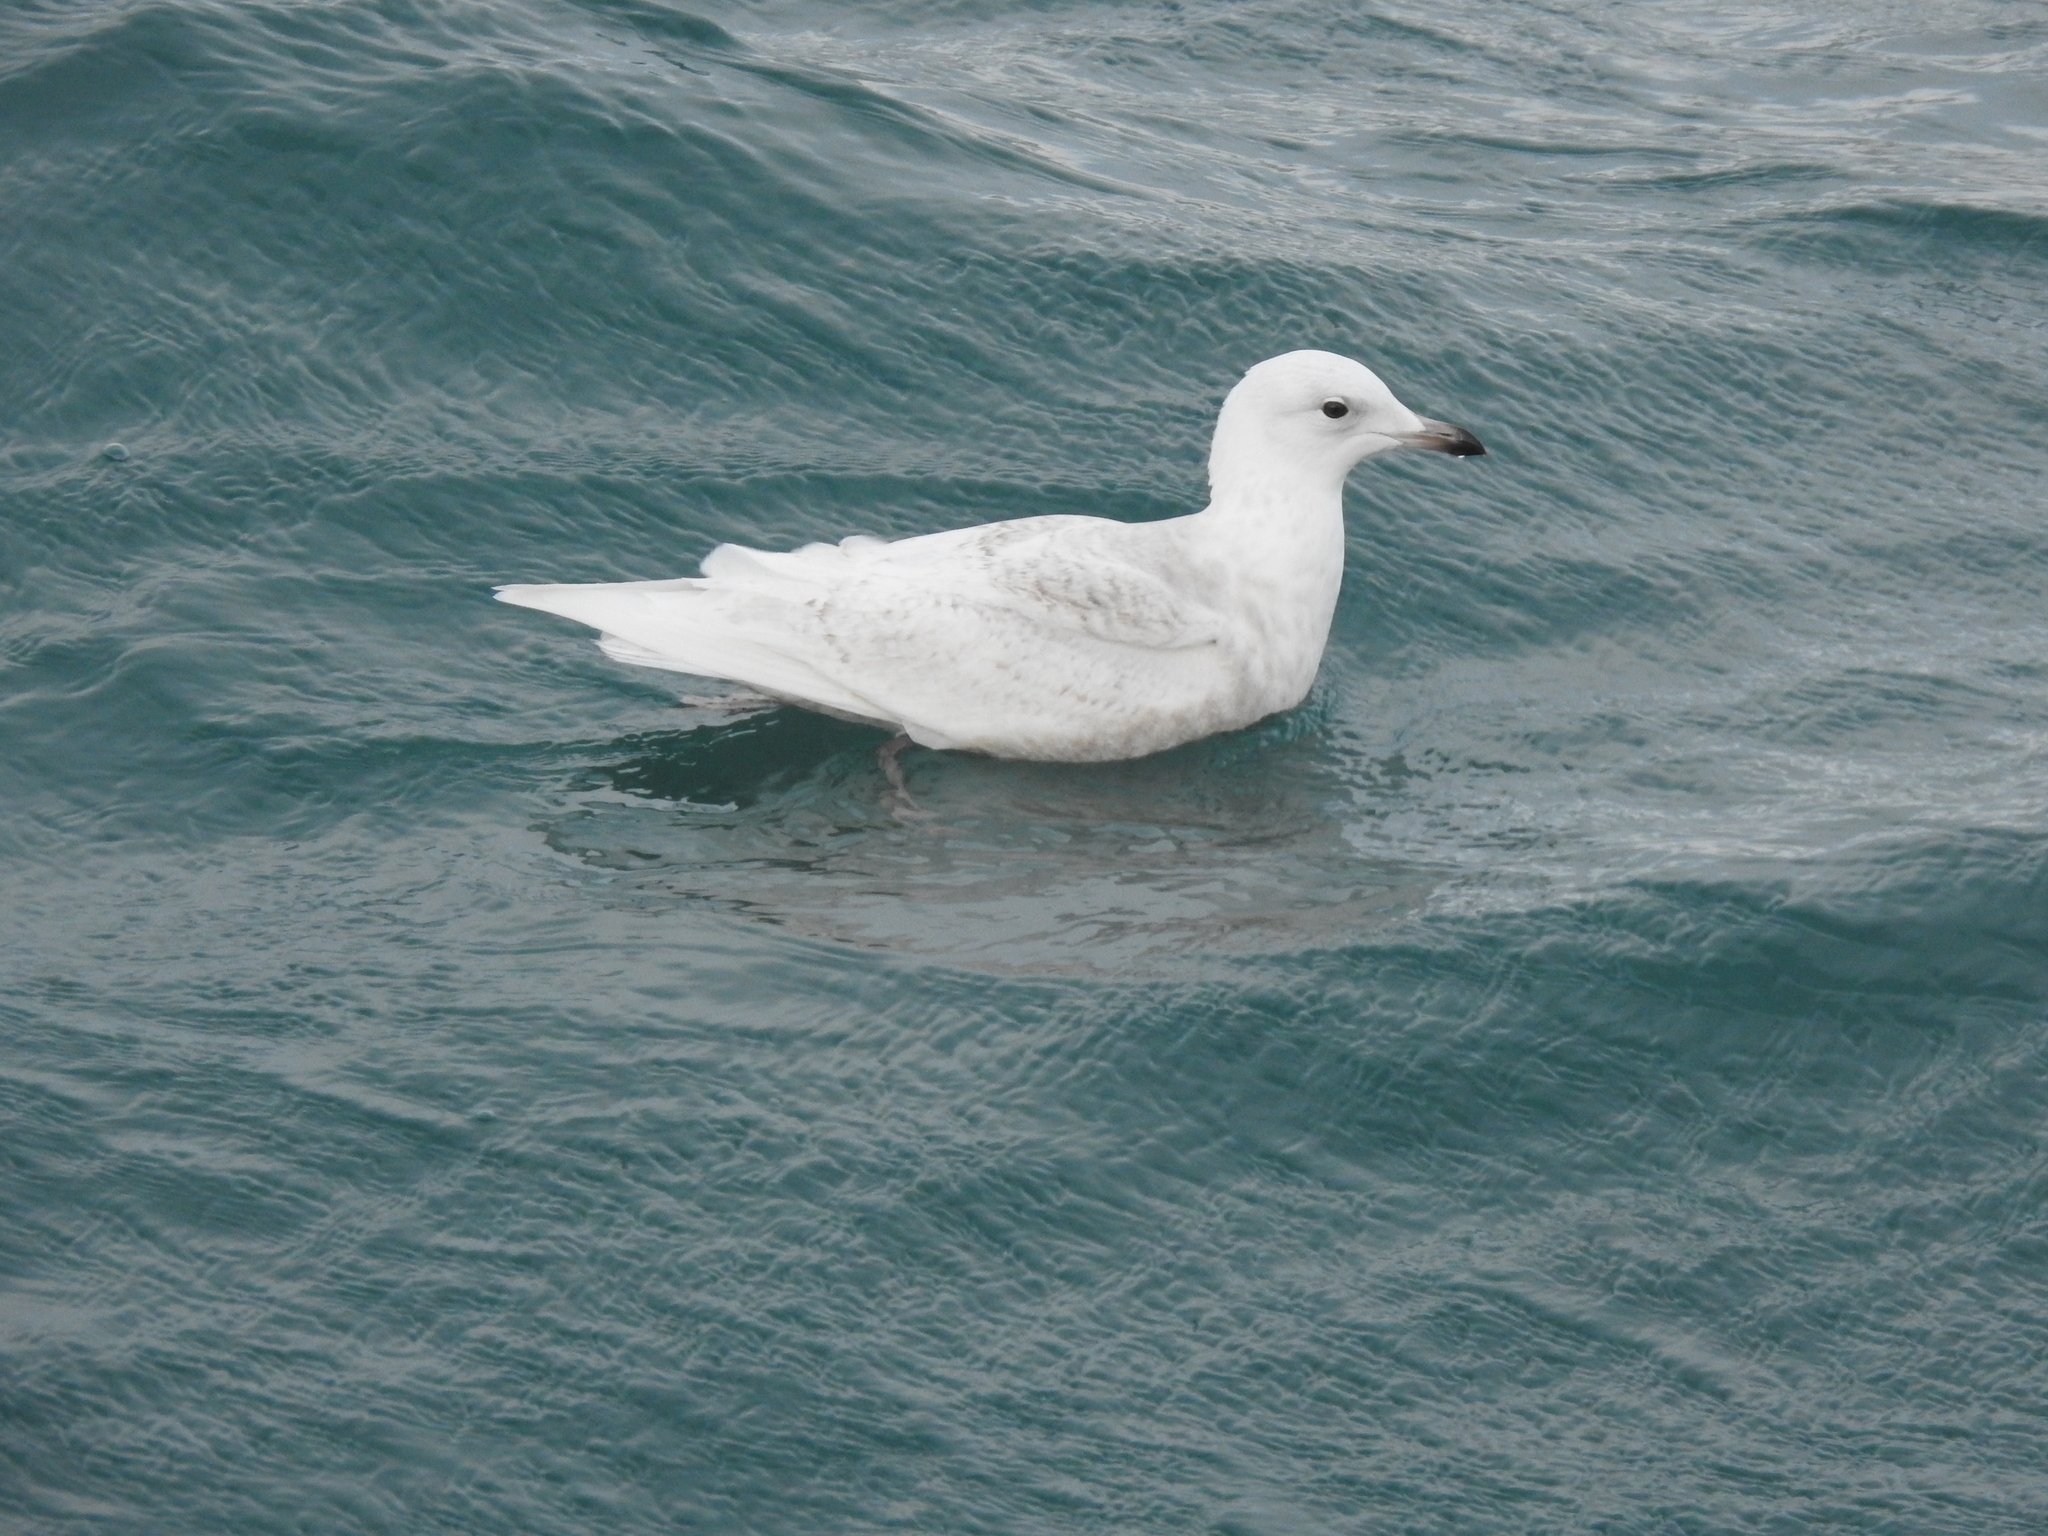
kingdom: Animalia
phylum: Chordata
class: Aves
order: Charadriiformes
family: Laridae
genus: Larus
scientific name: Larus glaucoides
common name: Iceland gull
